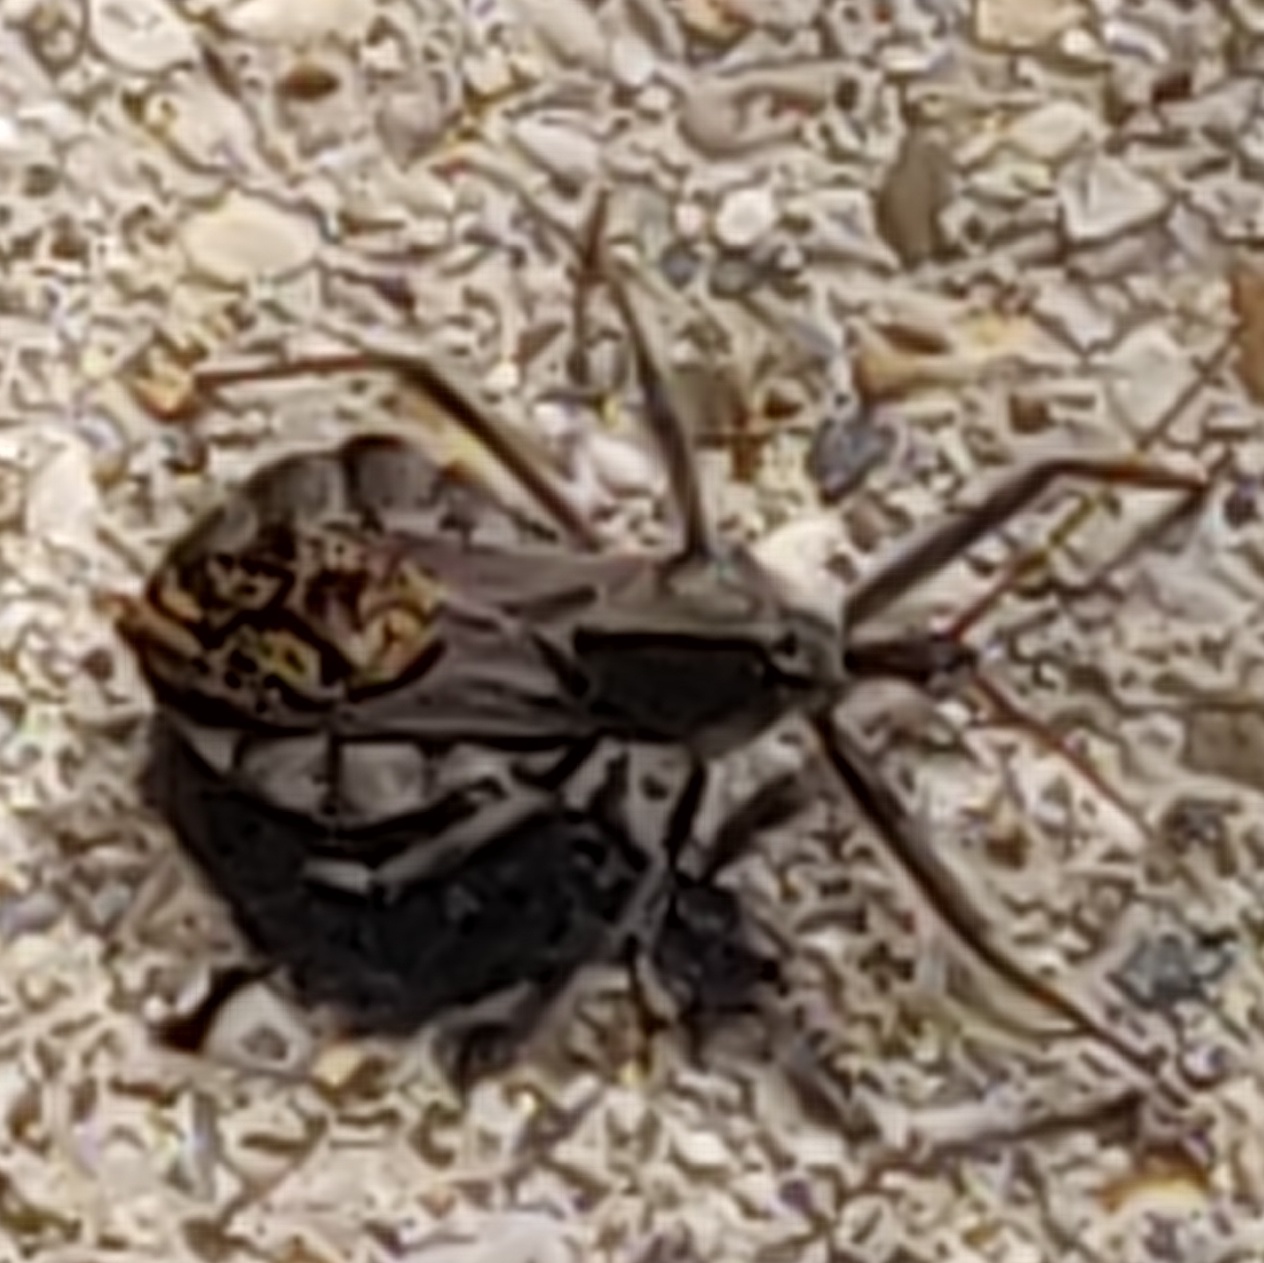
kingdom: Animalia
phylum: Arthropoda
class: Insecta
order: Hemiptera
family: Reduviidae
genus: Arilus
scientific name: Arilus cristatus
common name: North american wheel bug
